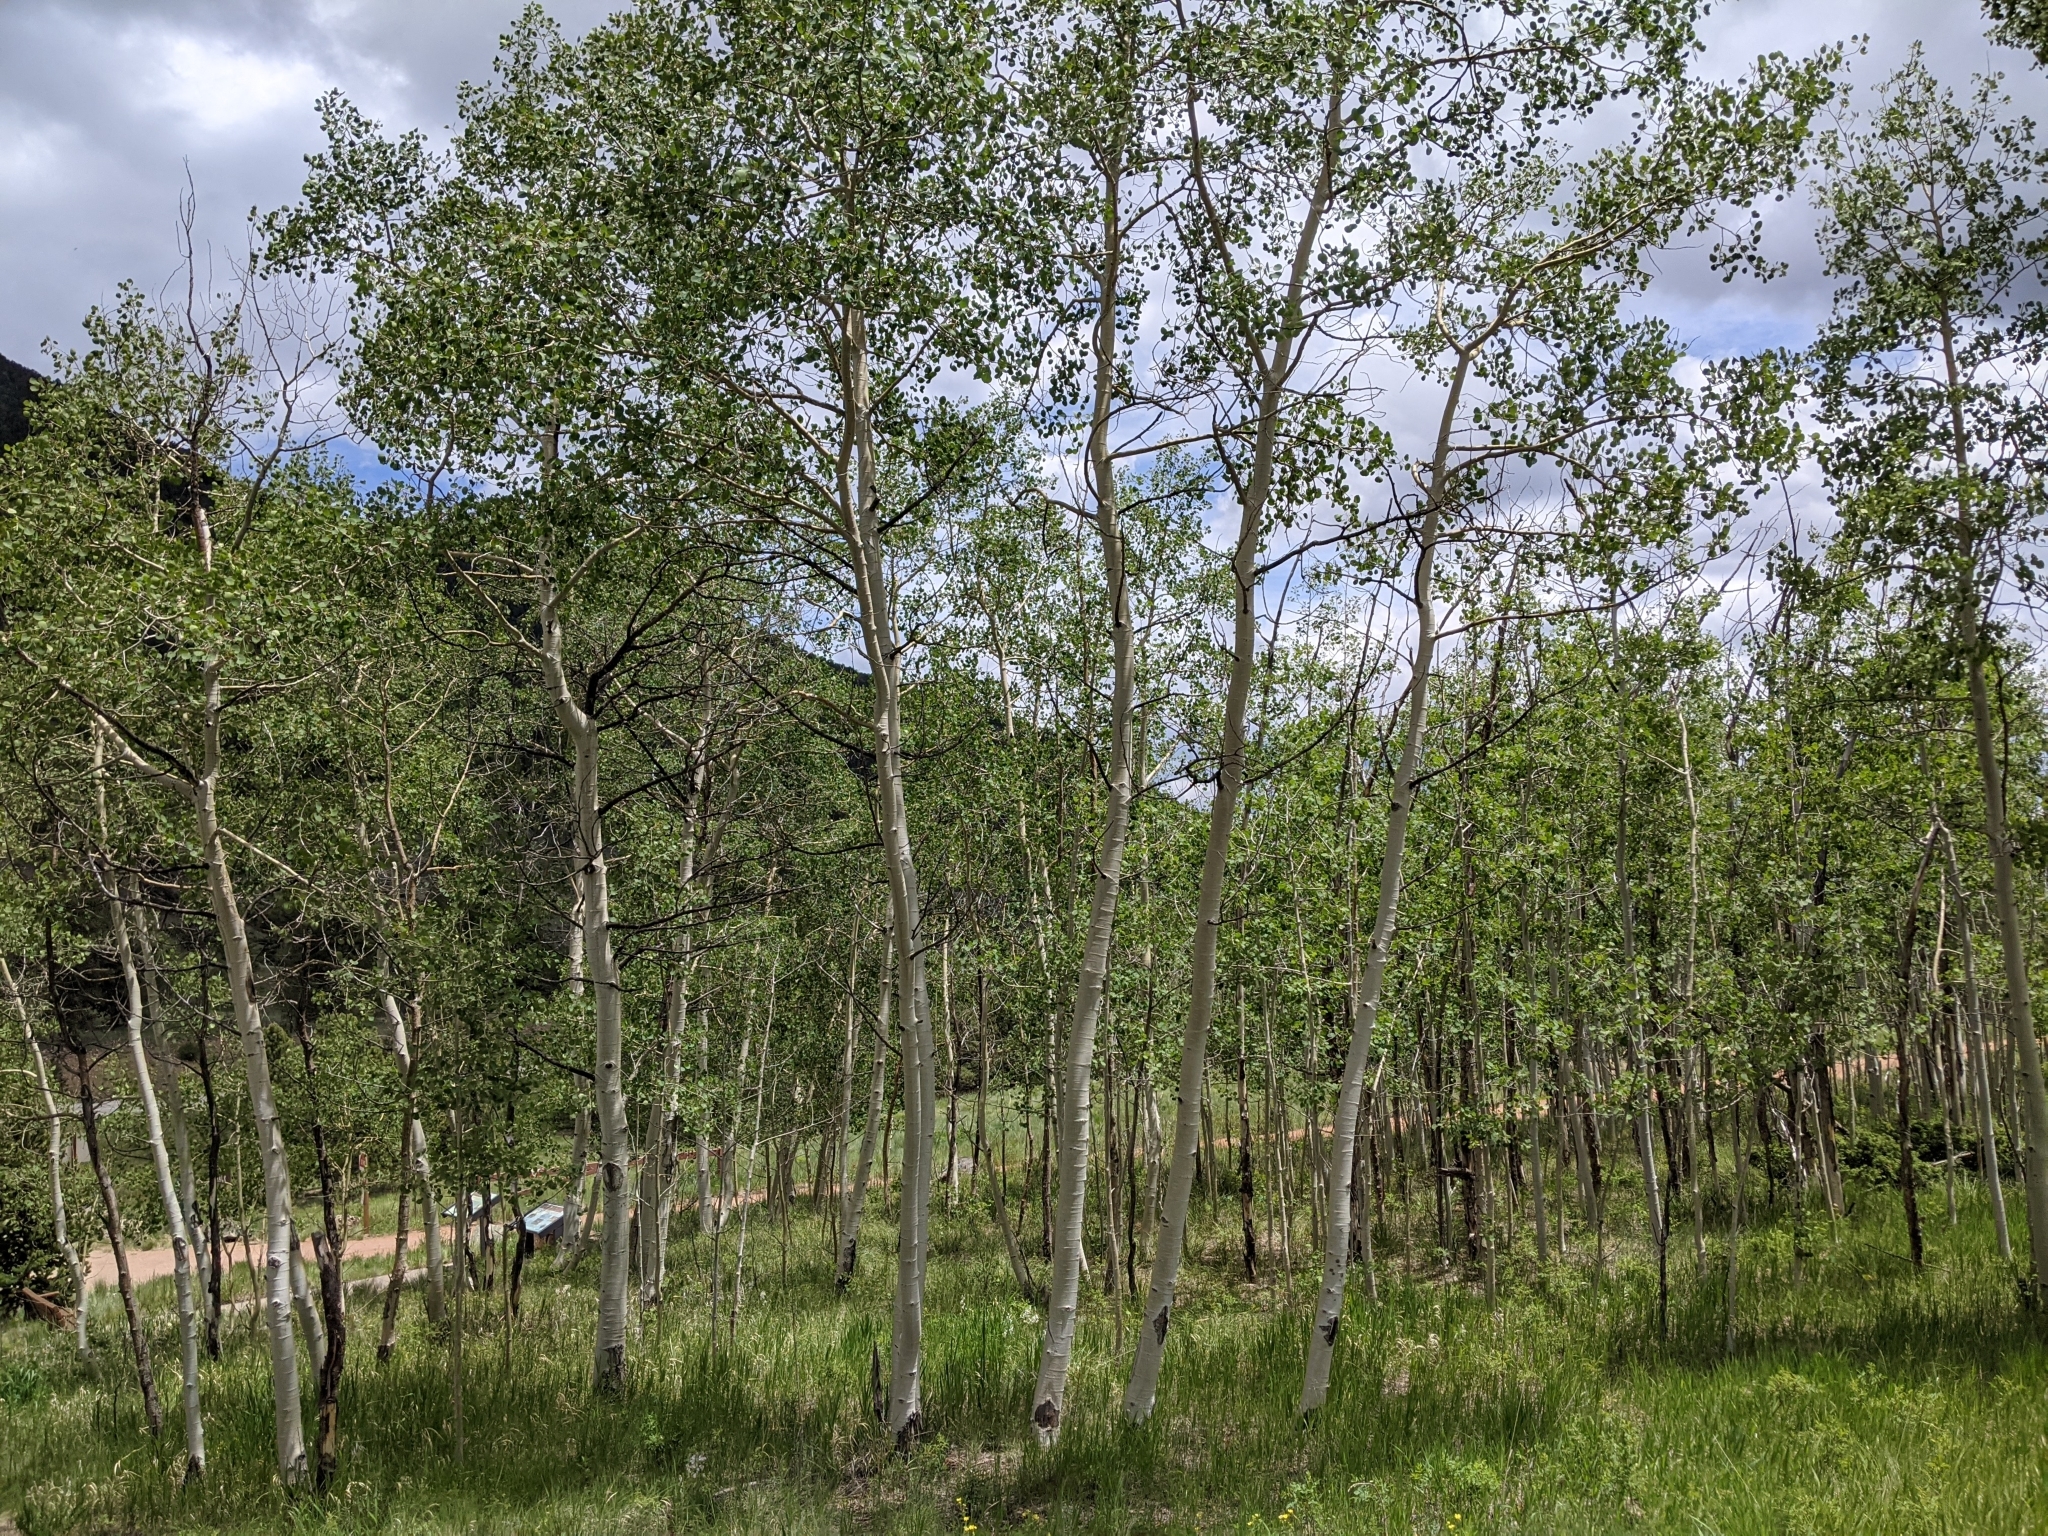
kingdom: Plantae
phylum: Tracheophyta
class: Magnoliopsida
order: Malpighiales
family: Salicaceae
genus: Populus
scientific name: Populus tremuloides
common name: Quaking aspen
